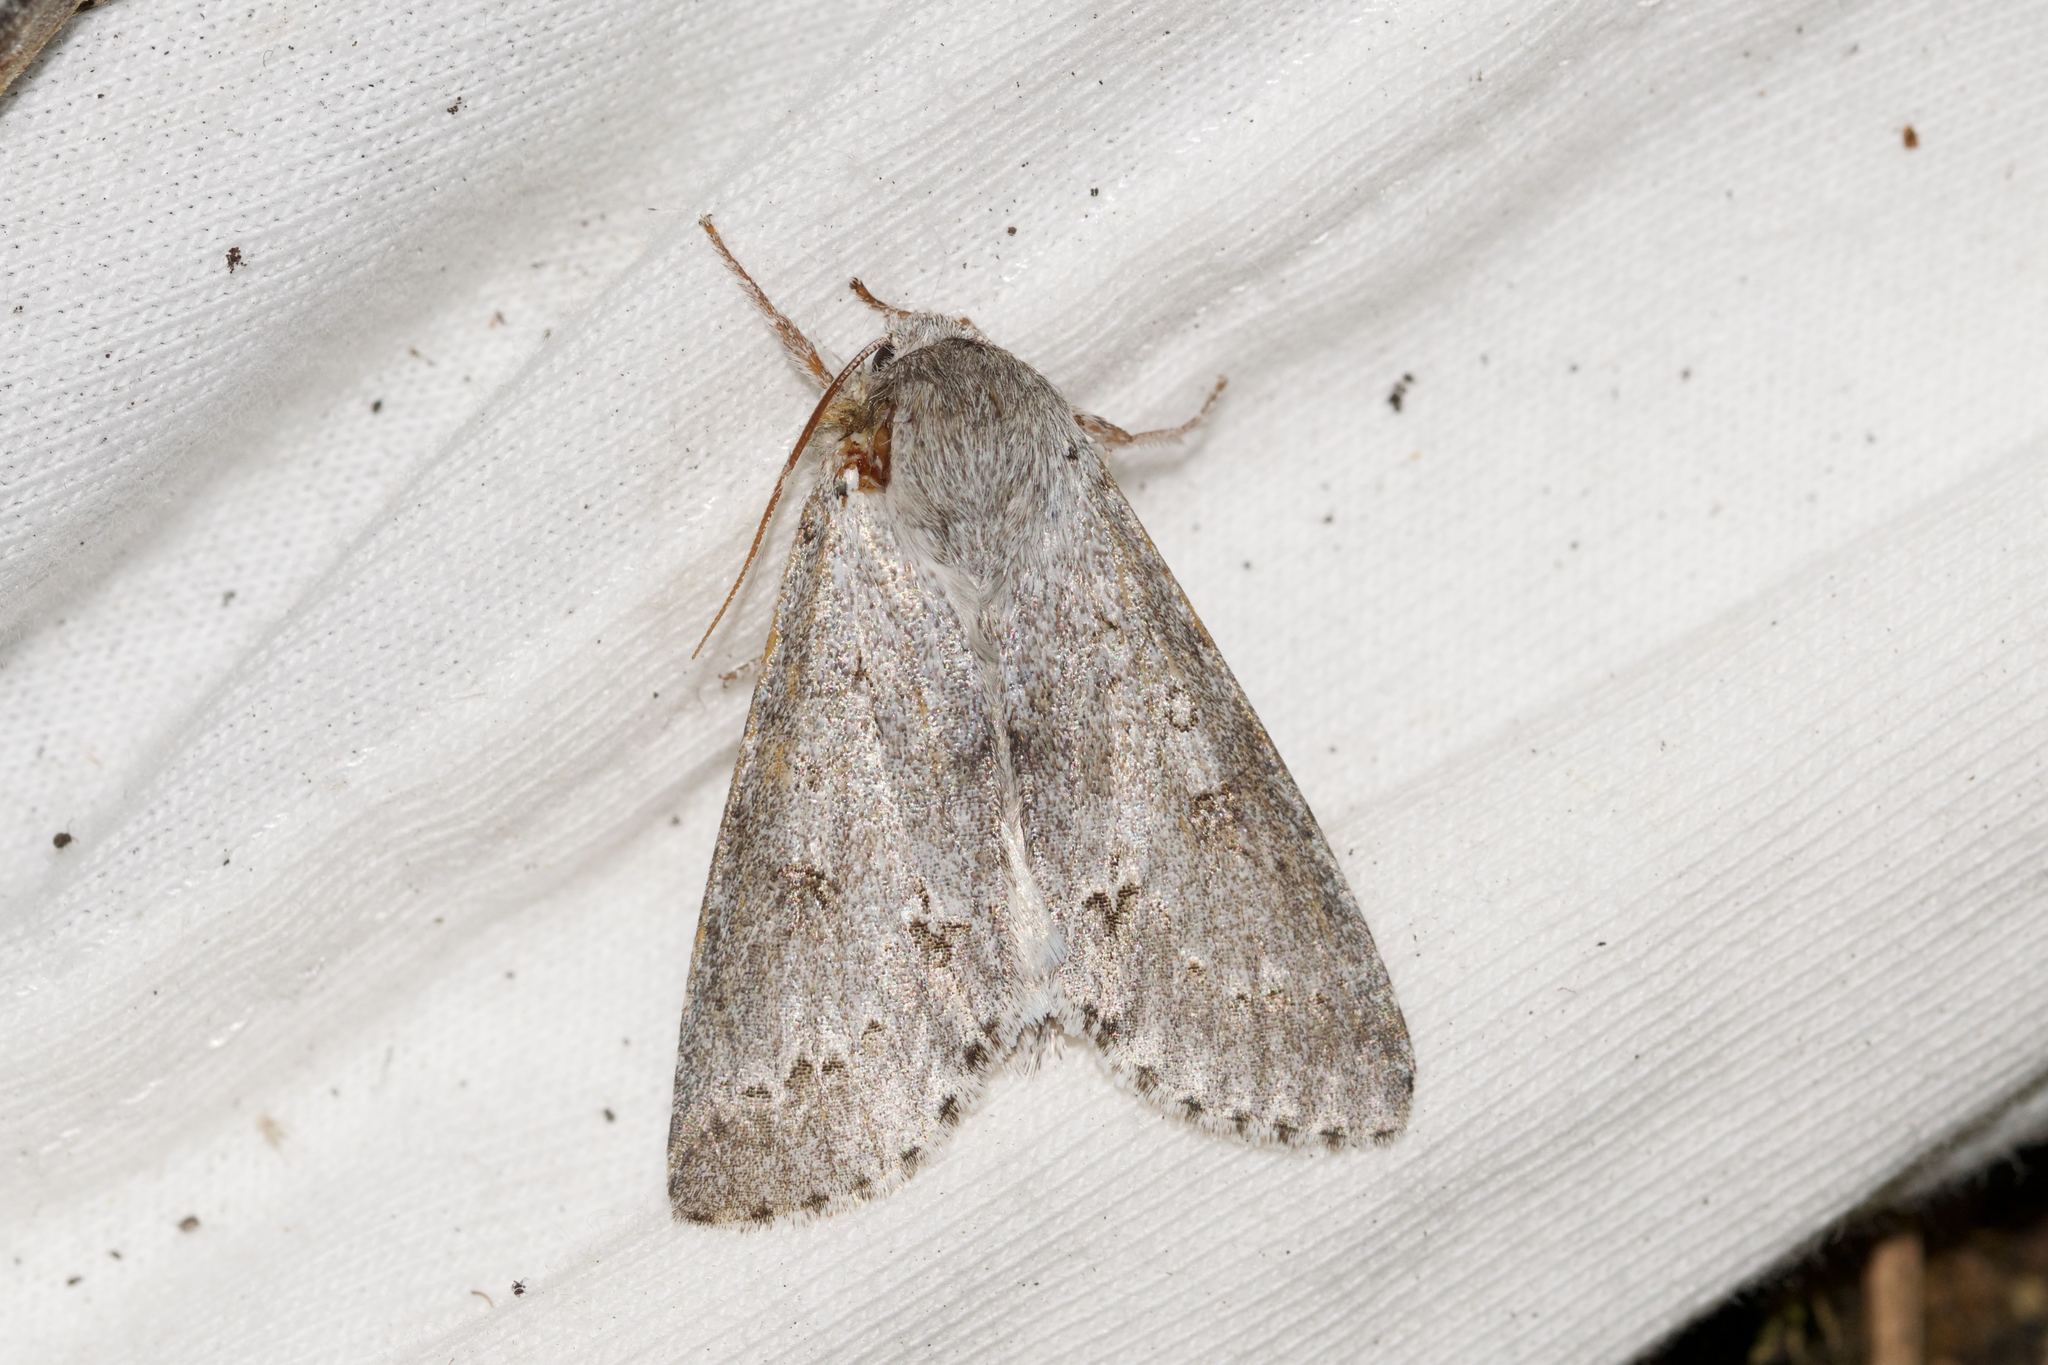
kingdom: Animalia
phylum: Arthropoda
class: Insecta
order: Lepidoptera
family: Noctuidae
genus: Acronicta
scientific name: Acronicta insita
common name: Large gray dagger
